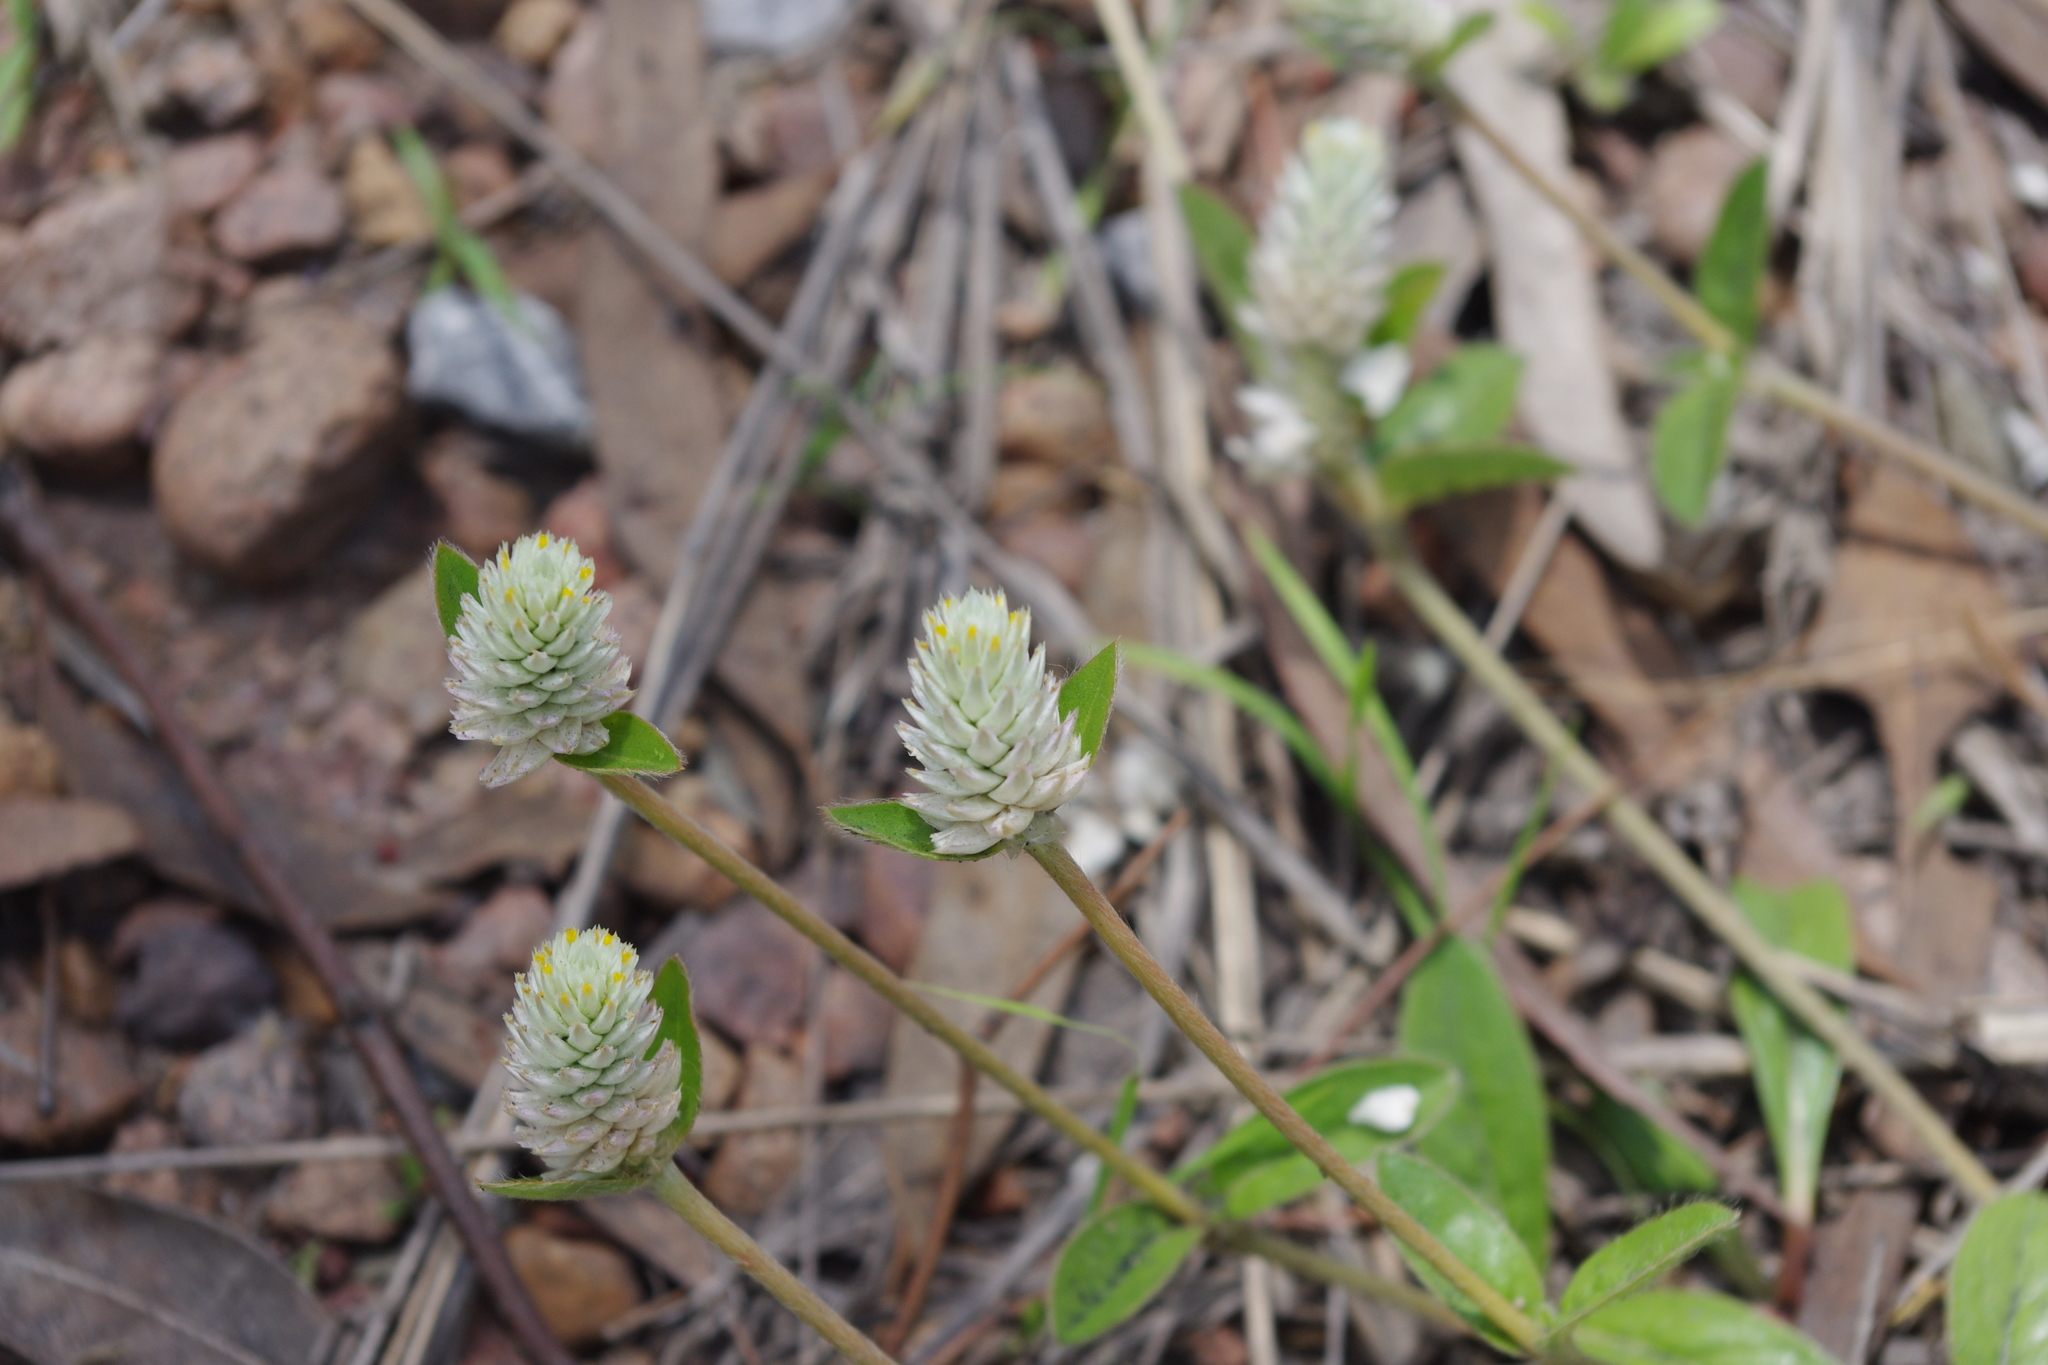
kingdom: Plantae
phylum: Tracheophyta
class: Magnoliopsida
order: Caryophyllales
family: Amaranthaceae
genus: Gomphrena
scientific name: Gomphrena celosioides
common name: Gomphrena-weed
